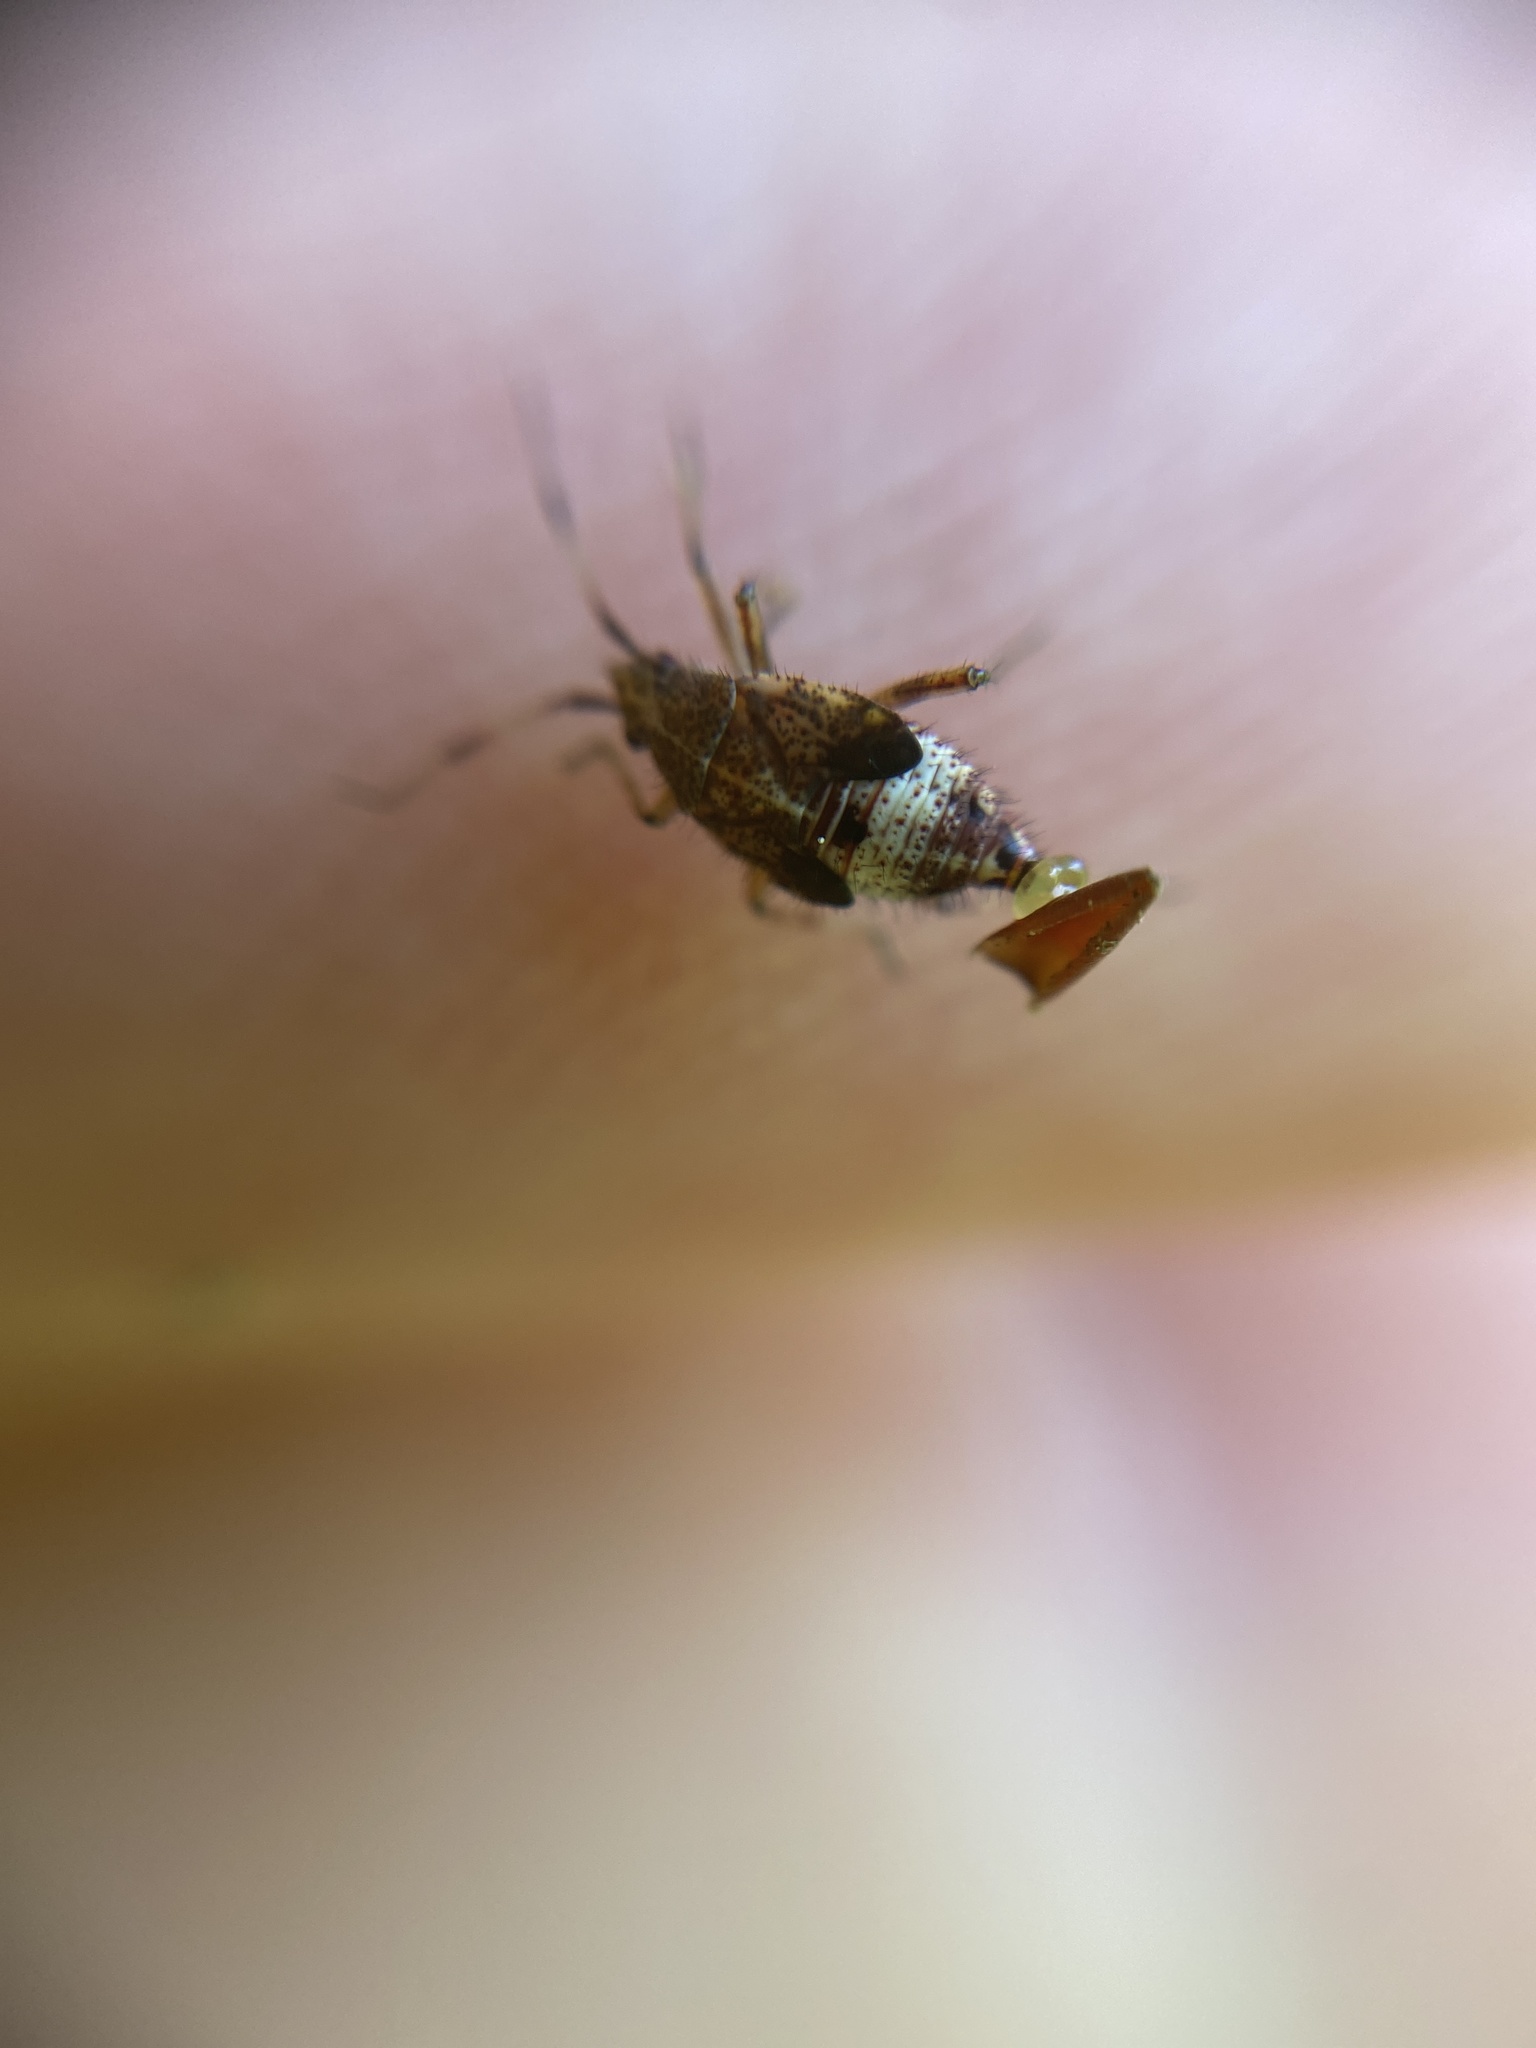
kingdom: Animalia
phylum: Arthropoda
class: Insecta
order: Hemiptera
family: Lygaeidae
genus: Kleidocerys
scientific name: Kleidocerys resedae
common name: Birch catkin bug
